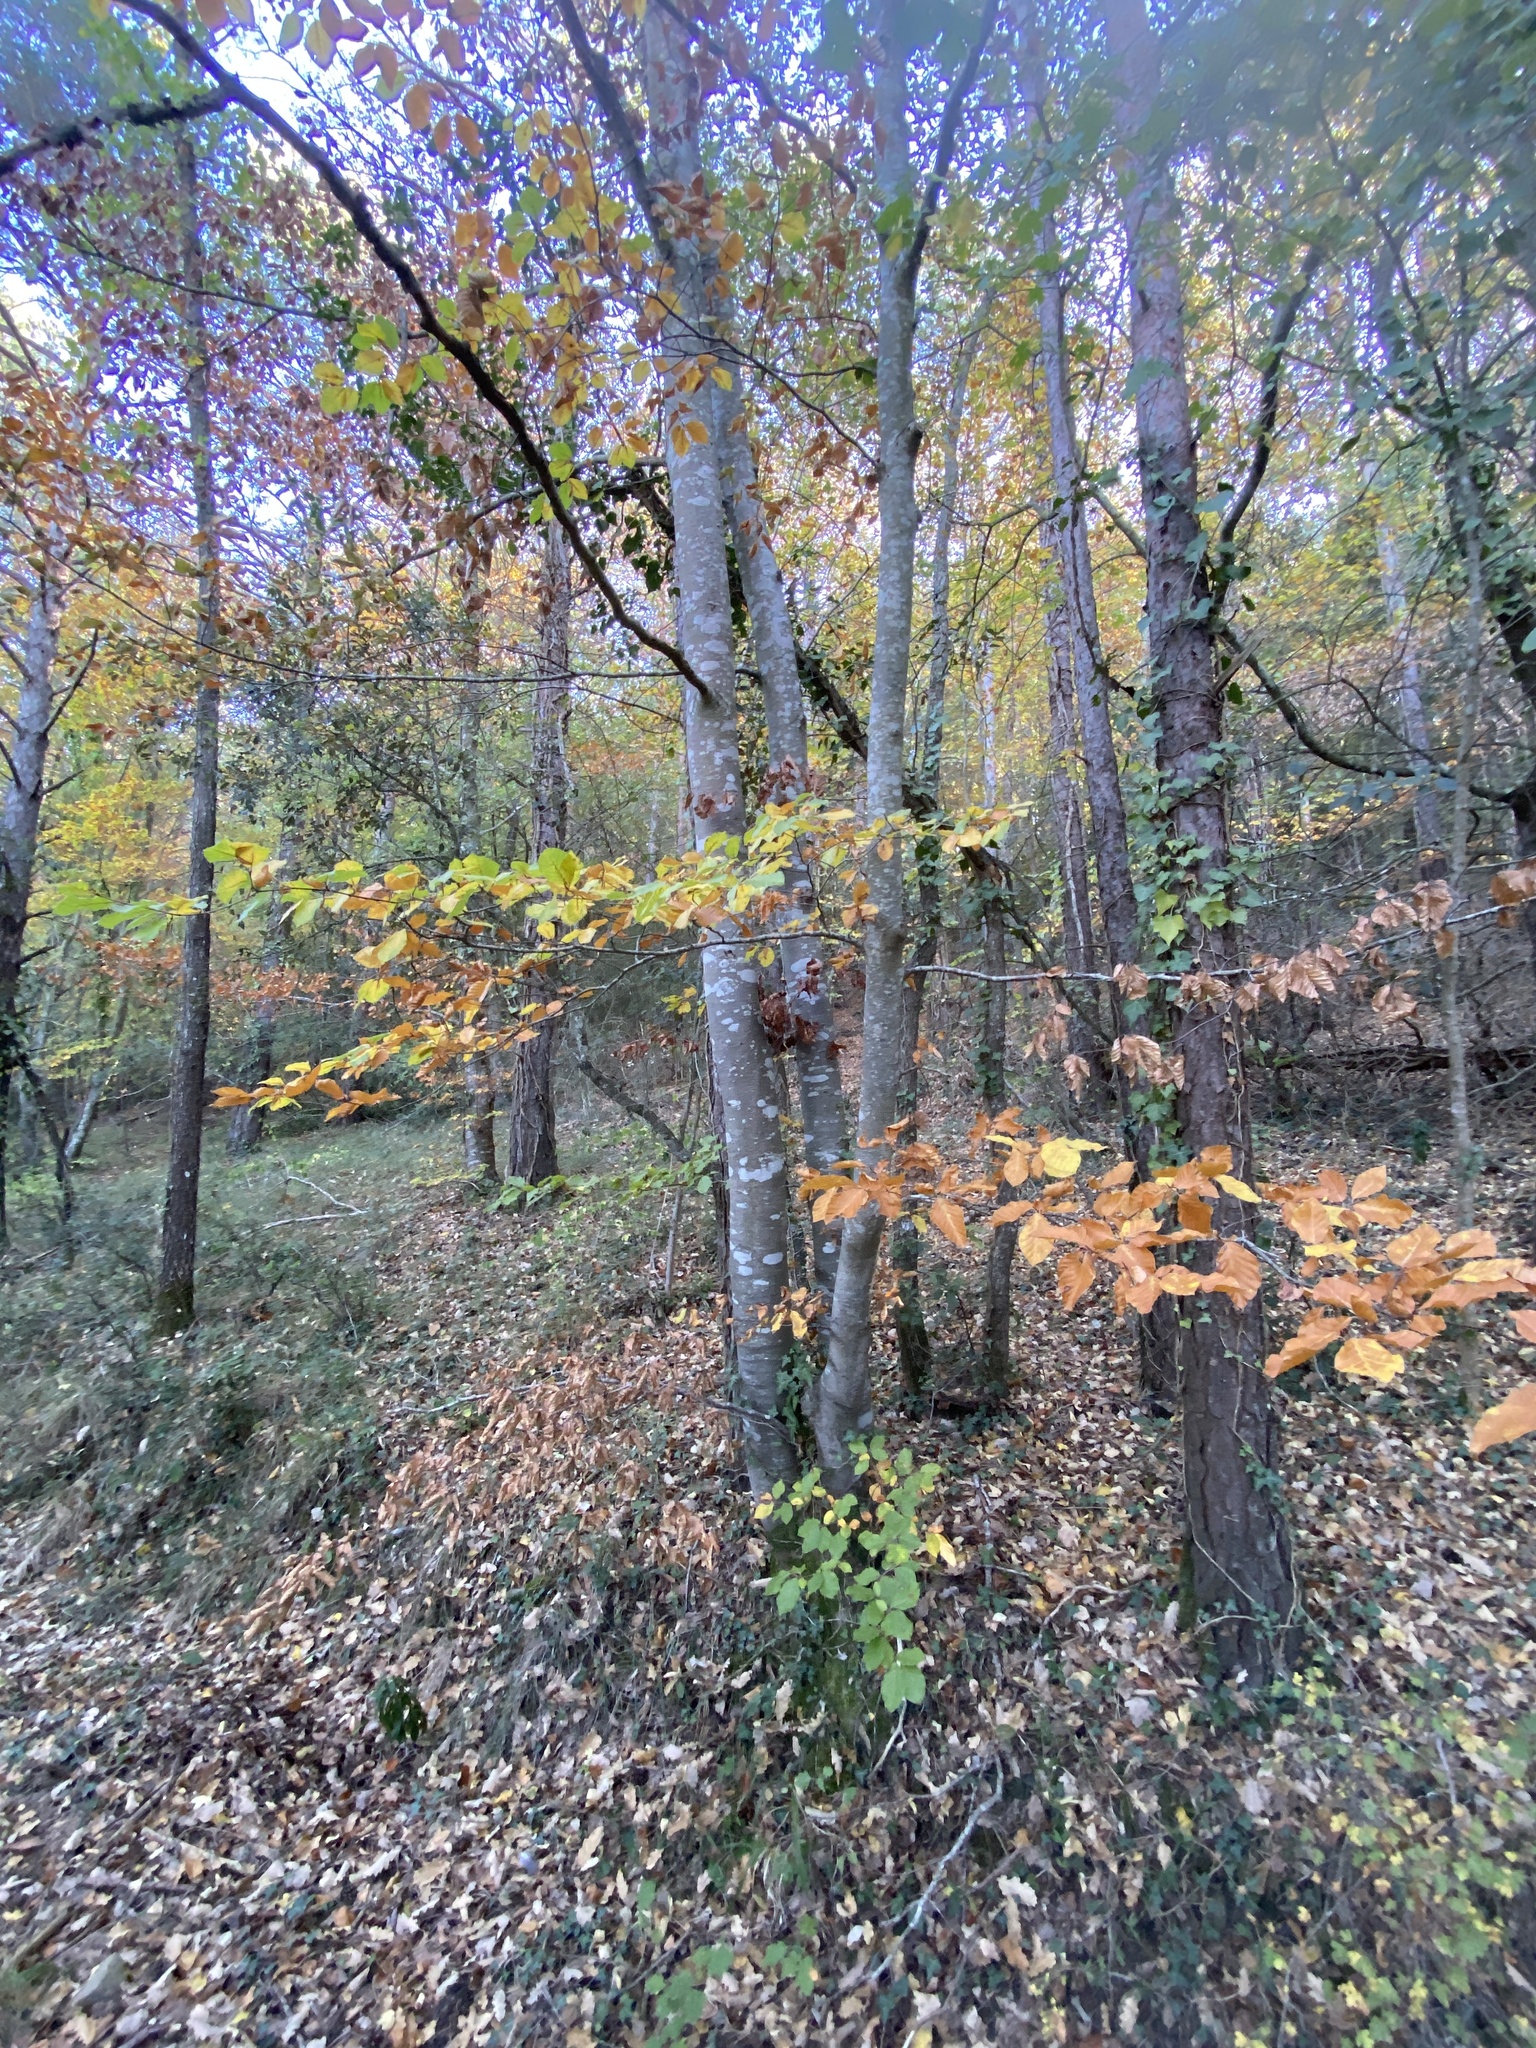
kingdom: Plantae
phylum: Tracheophyta
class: Magnoliopsida
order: Fagales
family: Fagaceae
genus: Fagus
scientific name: Fagus sylvatica
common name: Beech
